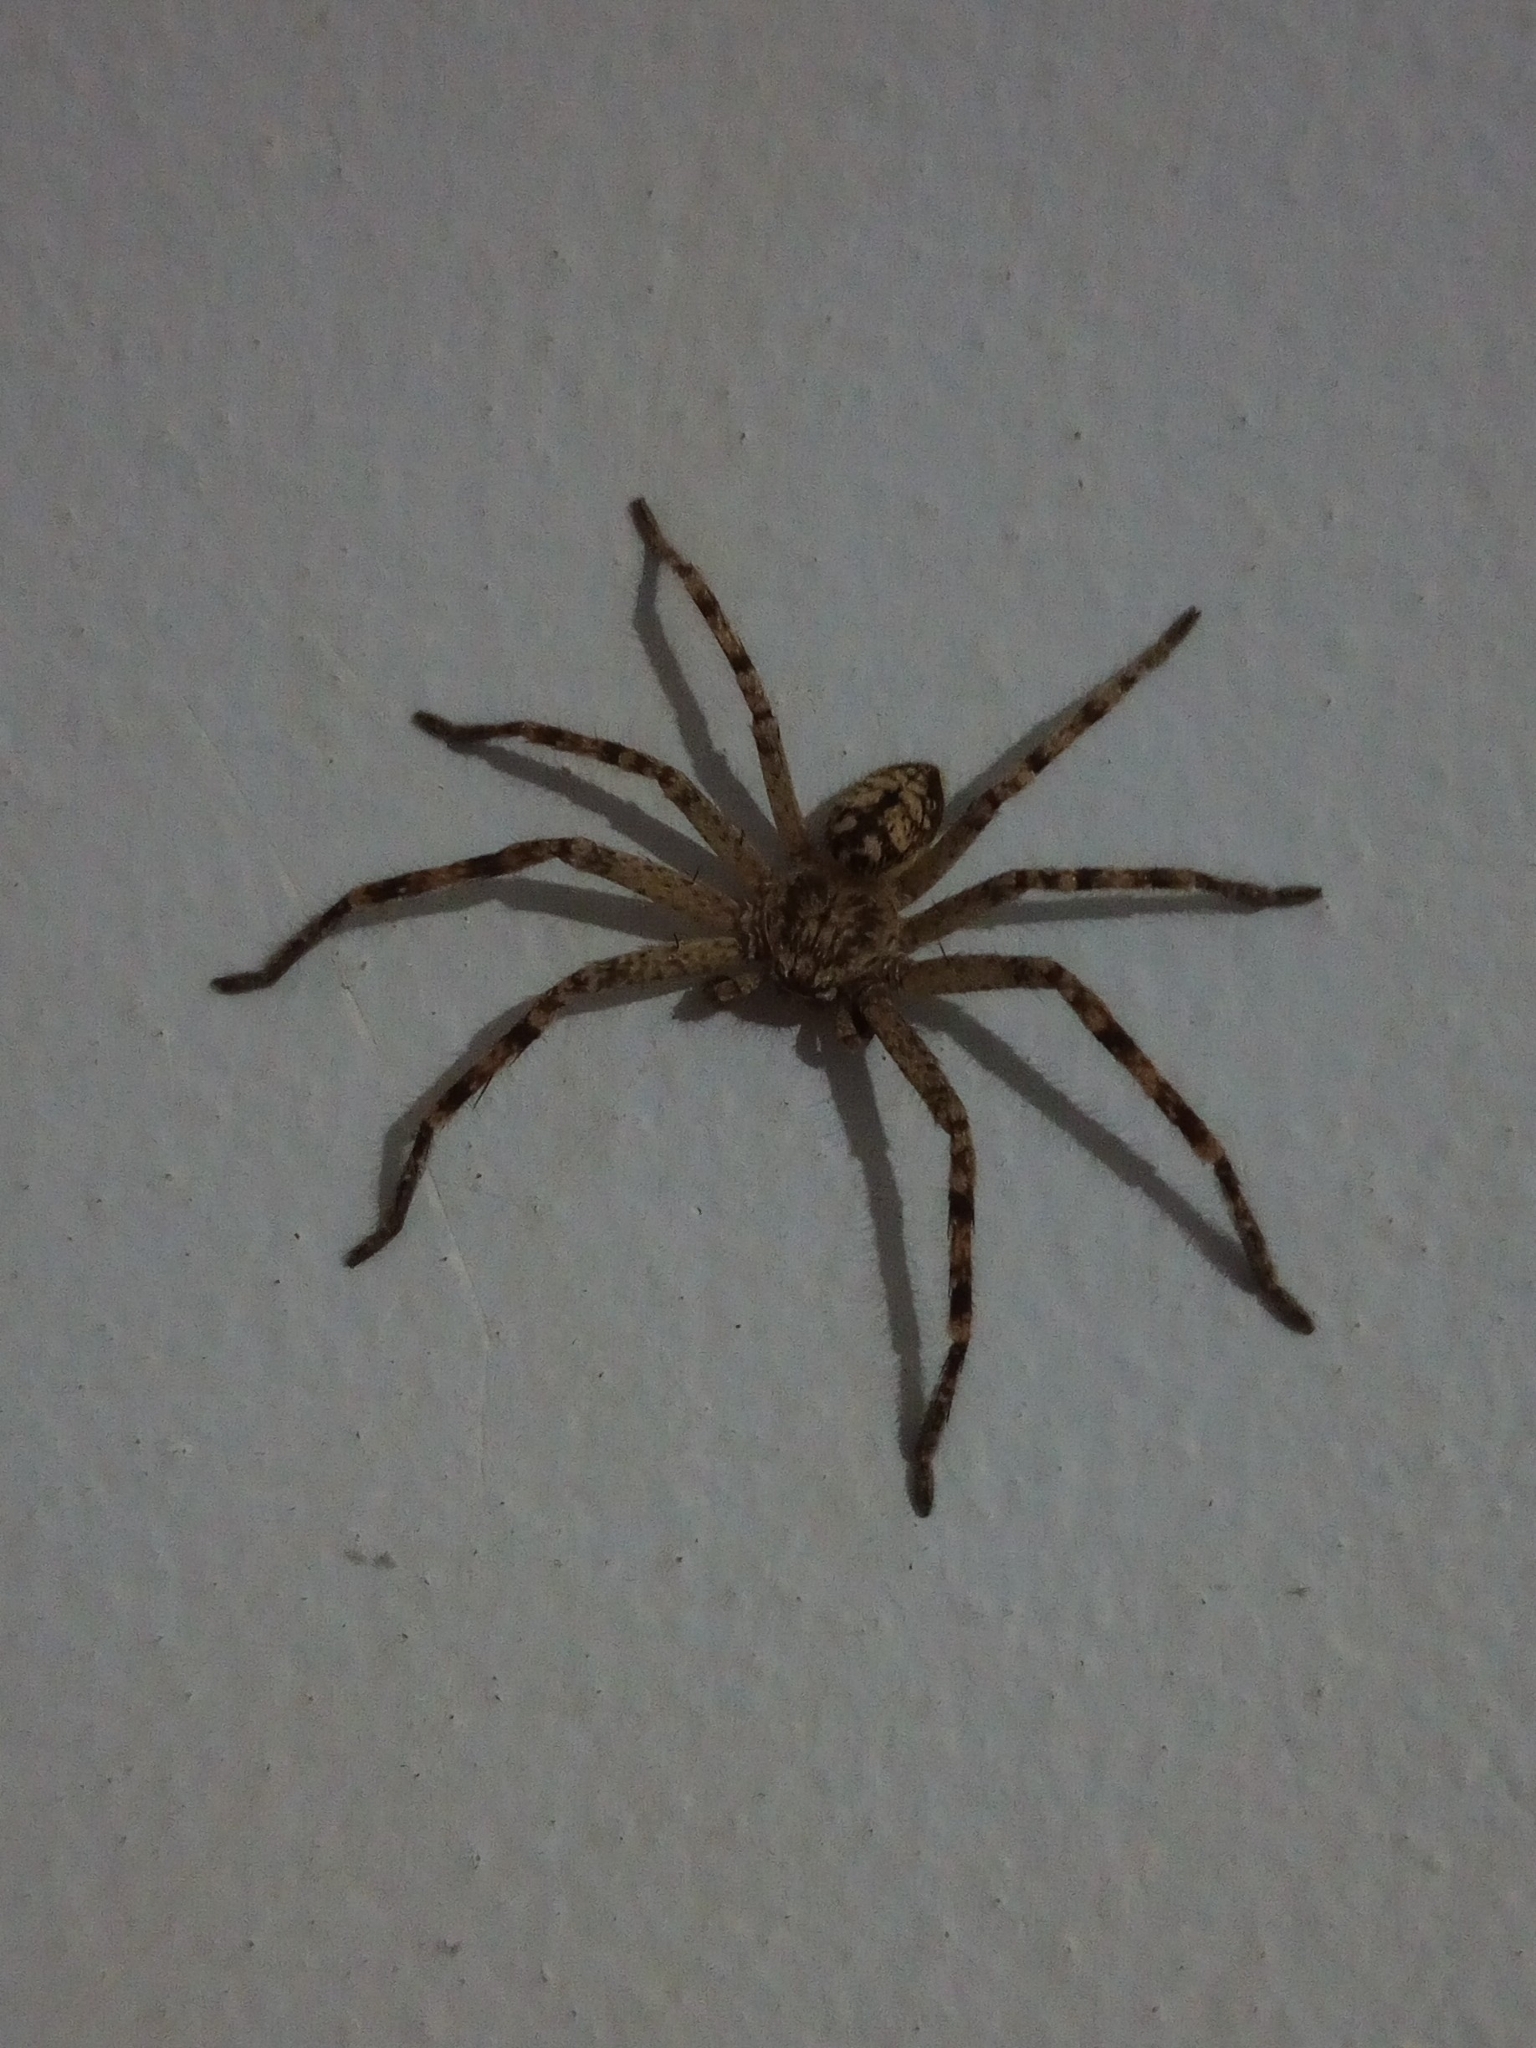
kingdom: Animalia
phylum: Arthropoda
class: Arachnida
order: Araneae
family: Sparassidae
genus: Polybetes
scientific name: Polybetes rapidus
